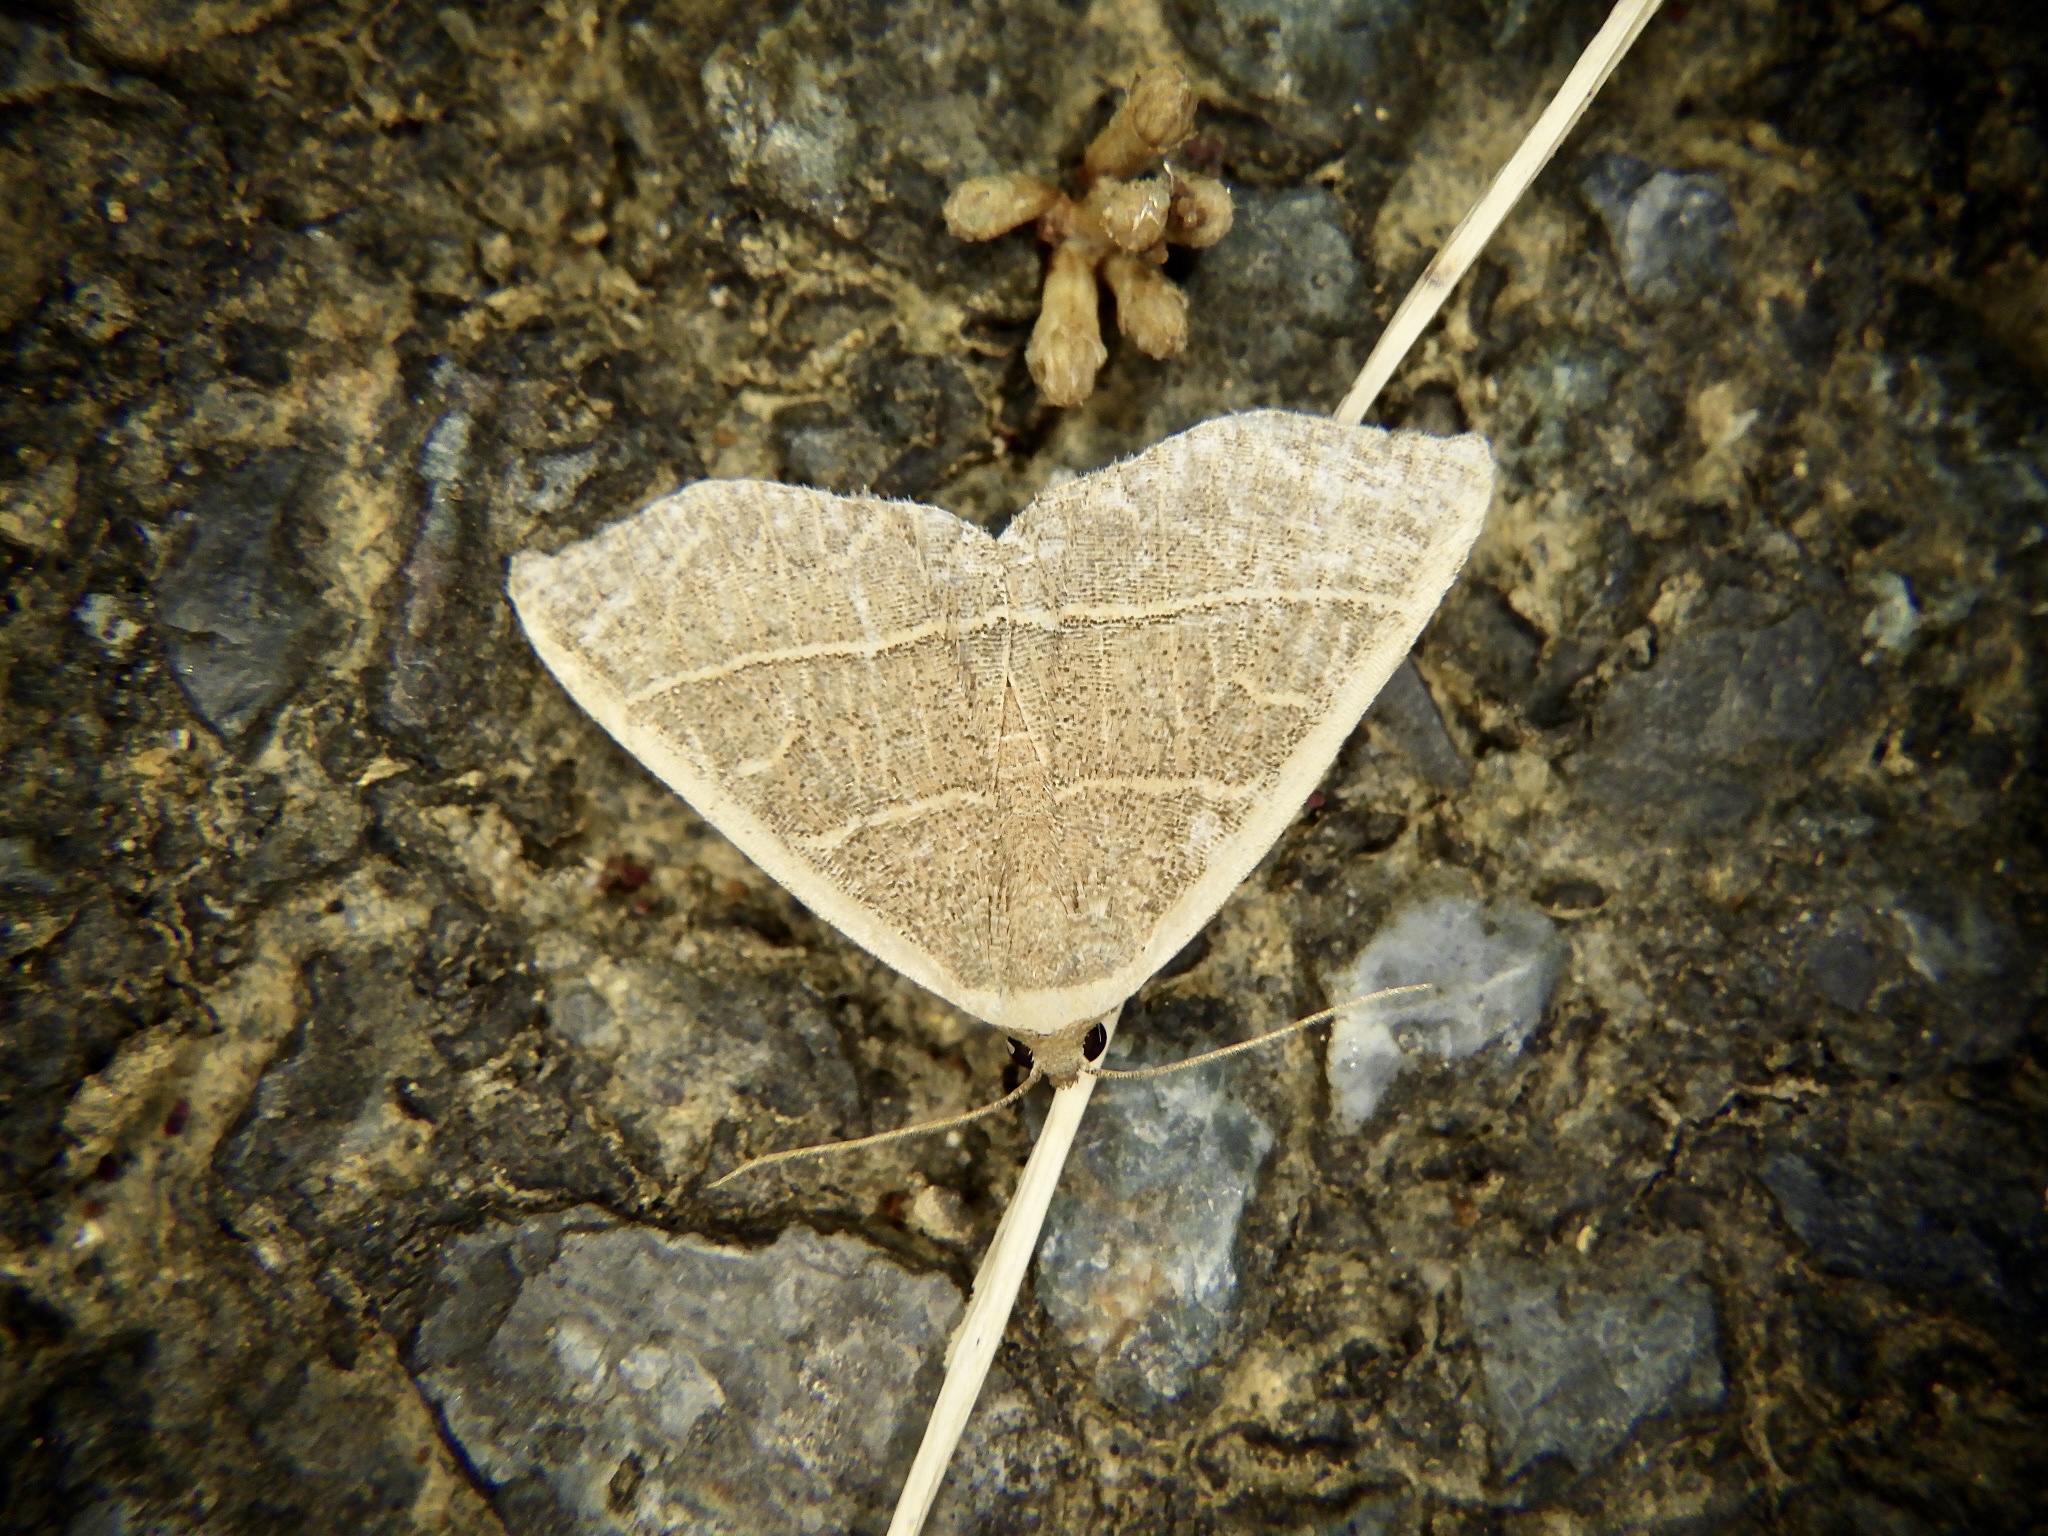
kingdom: Animalia
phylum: Arthropoda
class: Insecta
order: Lepidoptera
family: Noctuidae
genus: Oruza
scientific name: Oruza mira
